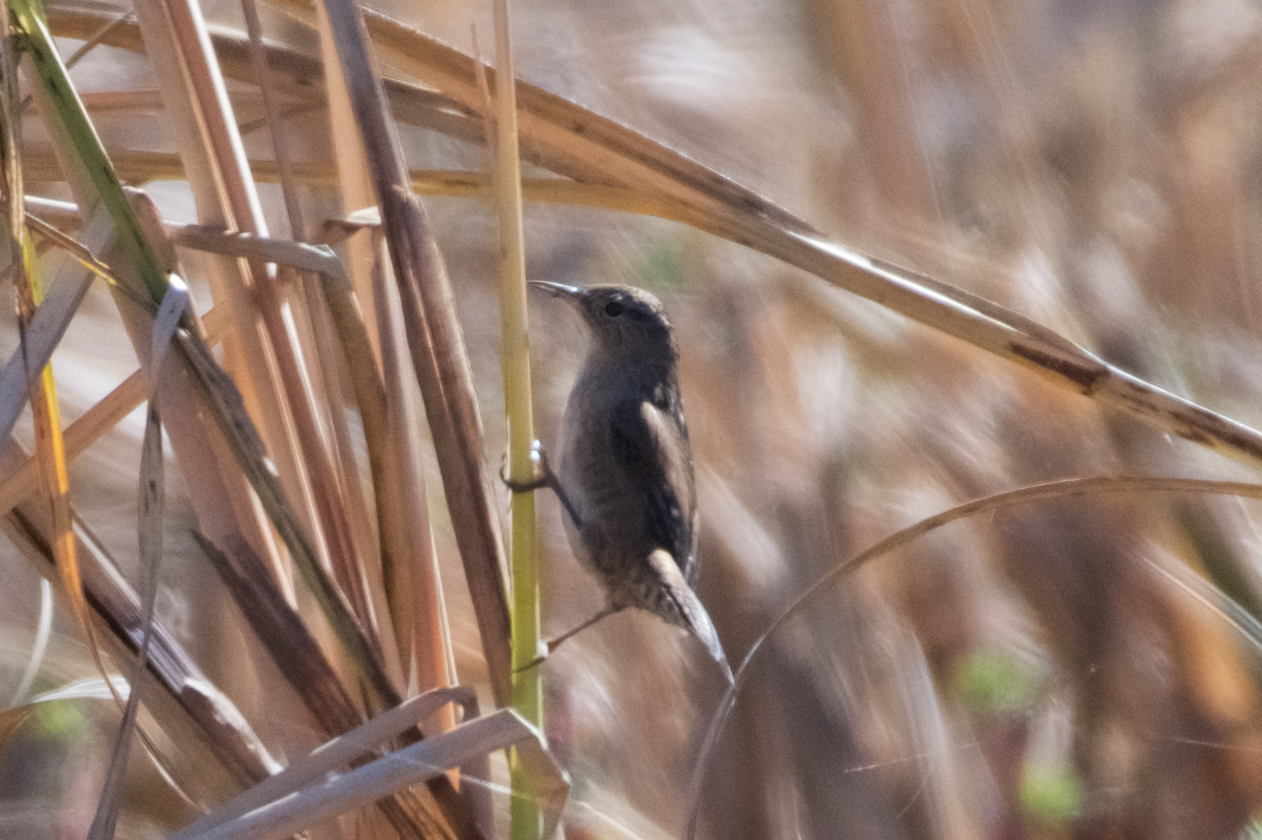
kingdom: Animalia
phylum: Chordata
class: Aves
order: Passeriformes
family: Troglodytidae
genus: Cistothorus
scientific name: Cistothorus palustris
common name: Marsh wren
